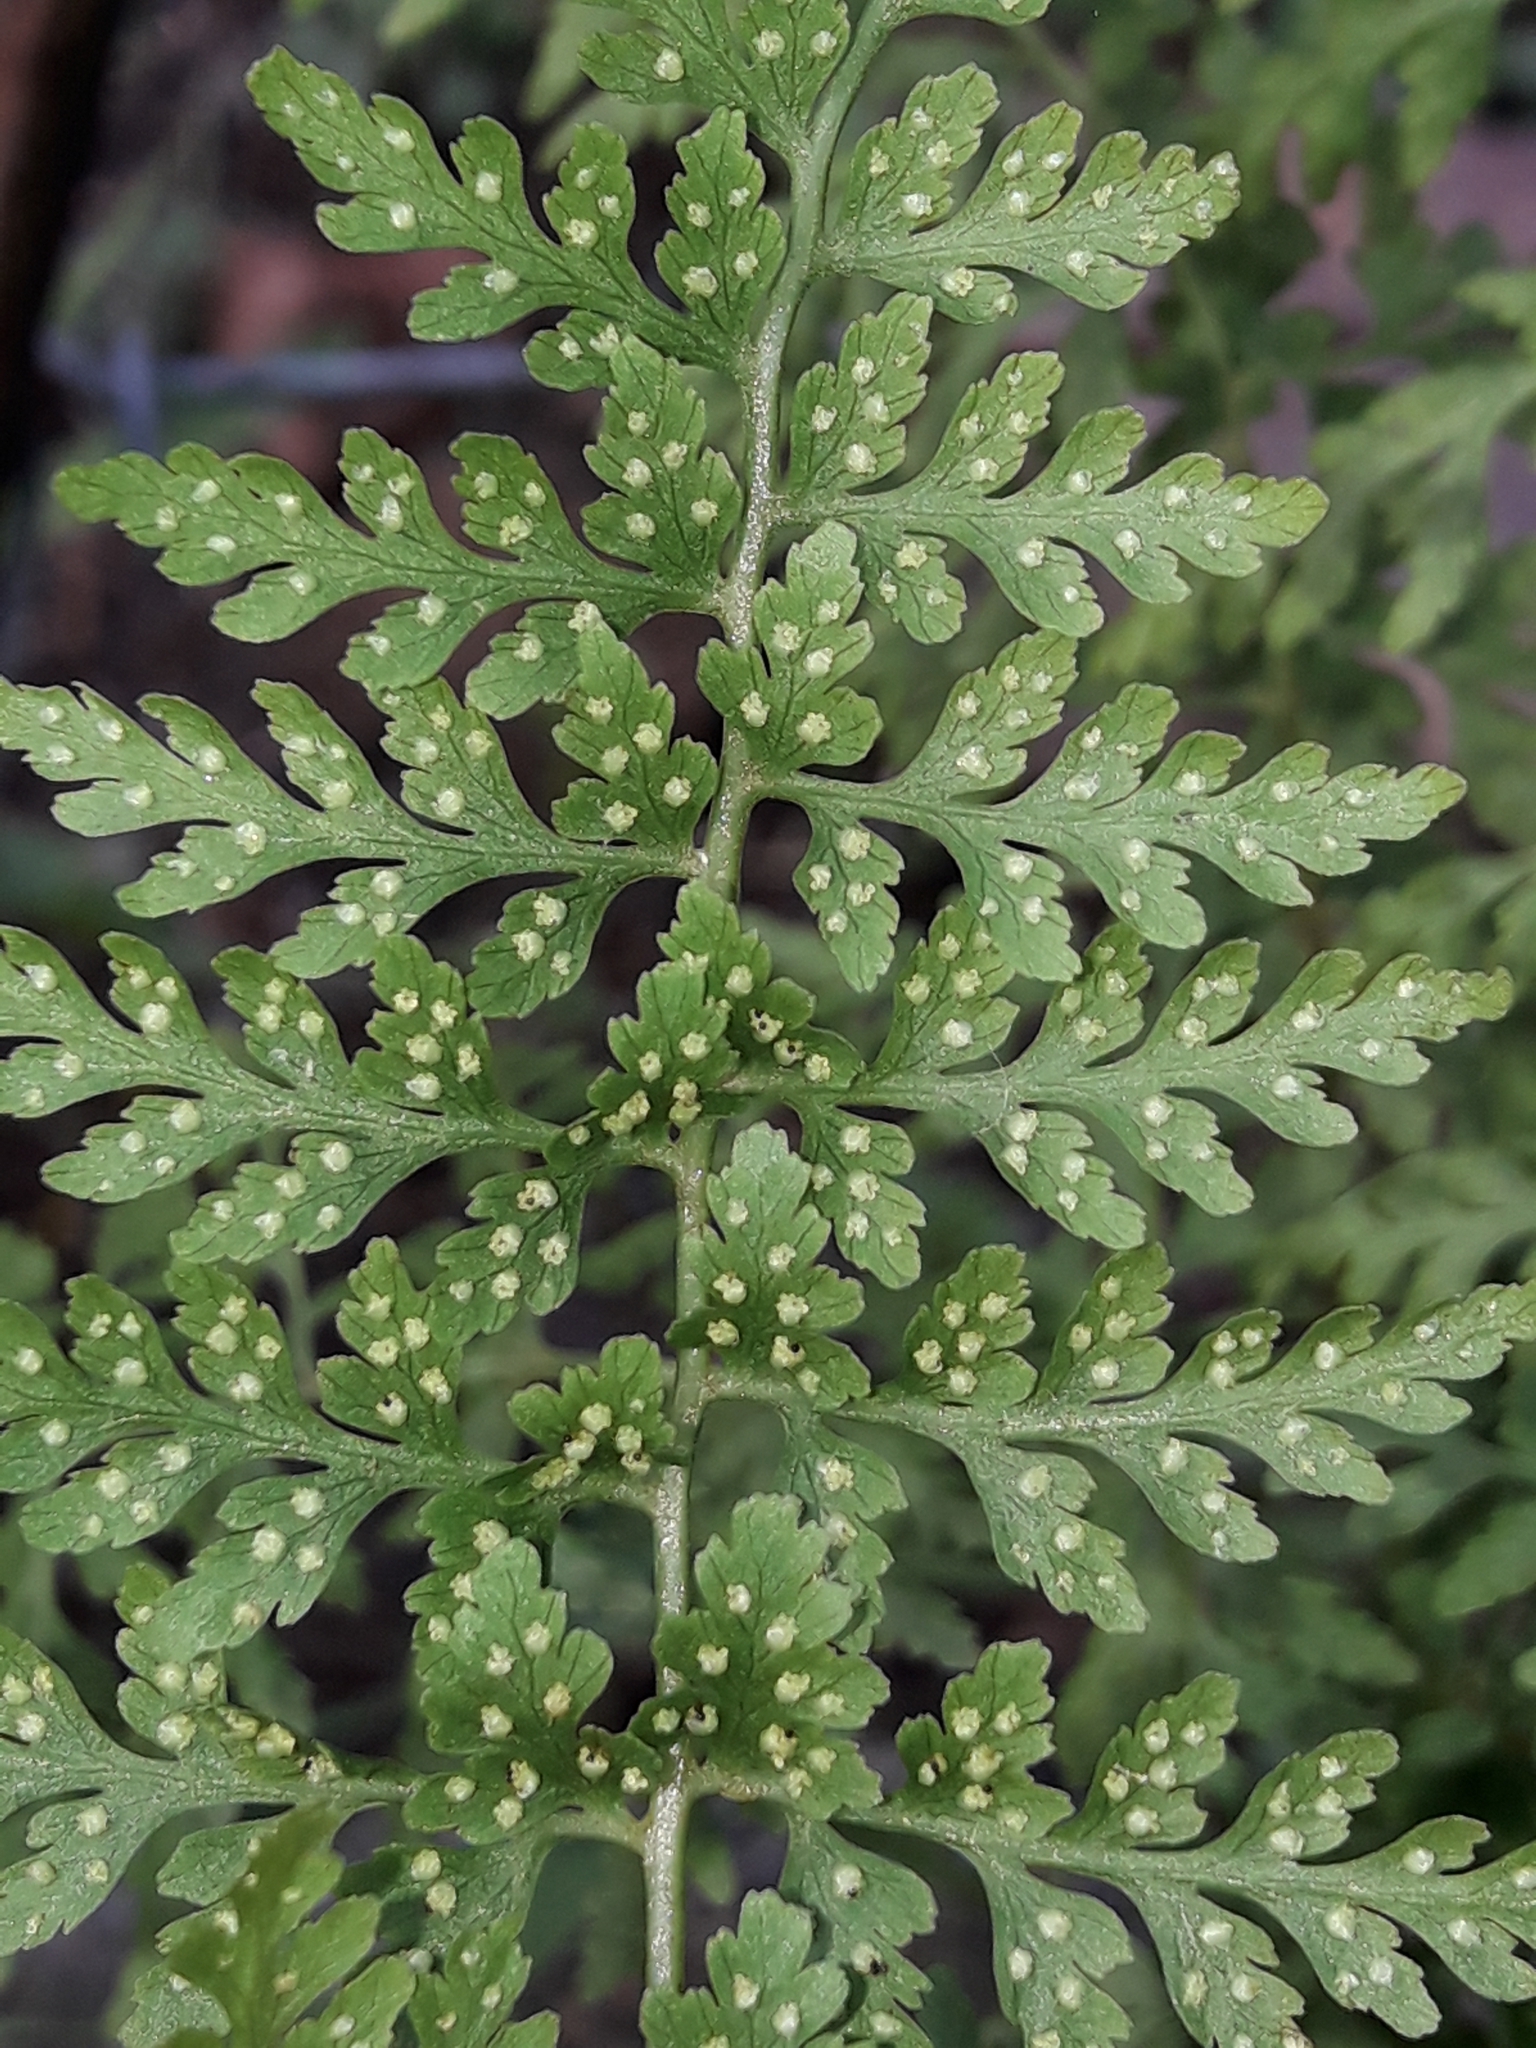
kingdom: Plantae
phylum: Tracheophyta
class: Polypodiopsida
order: Polypodiales
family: Cystopteridaceae
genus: Cystopteris
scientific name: Cystopteris fragilis
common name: Brittle bladder fern
